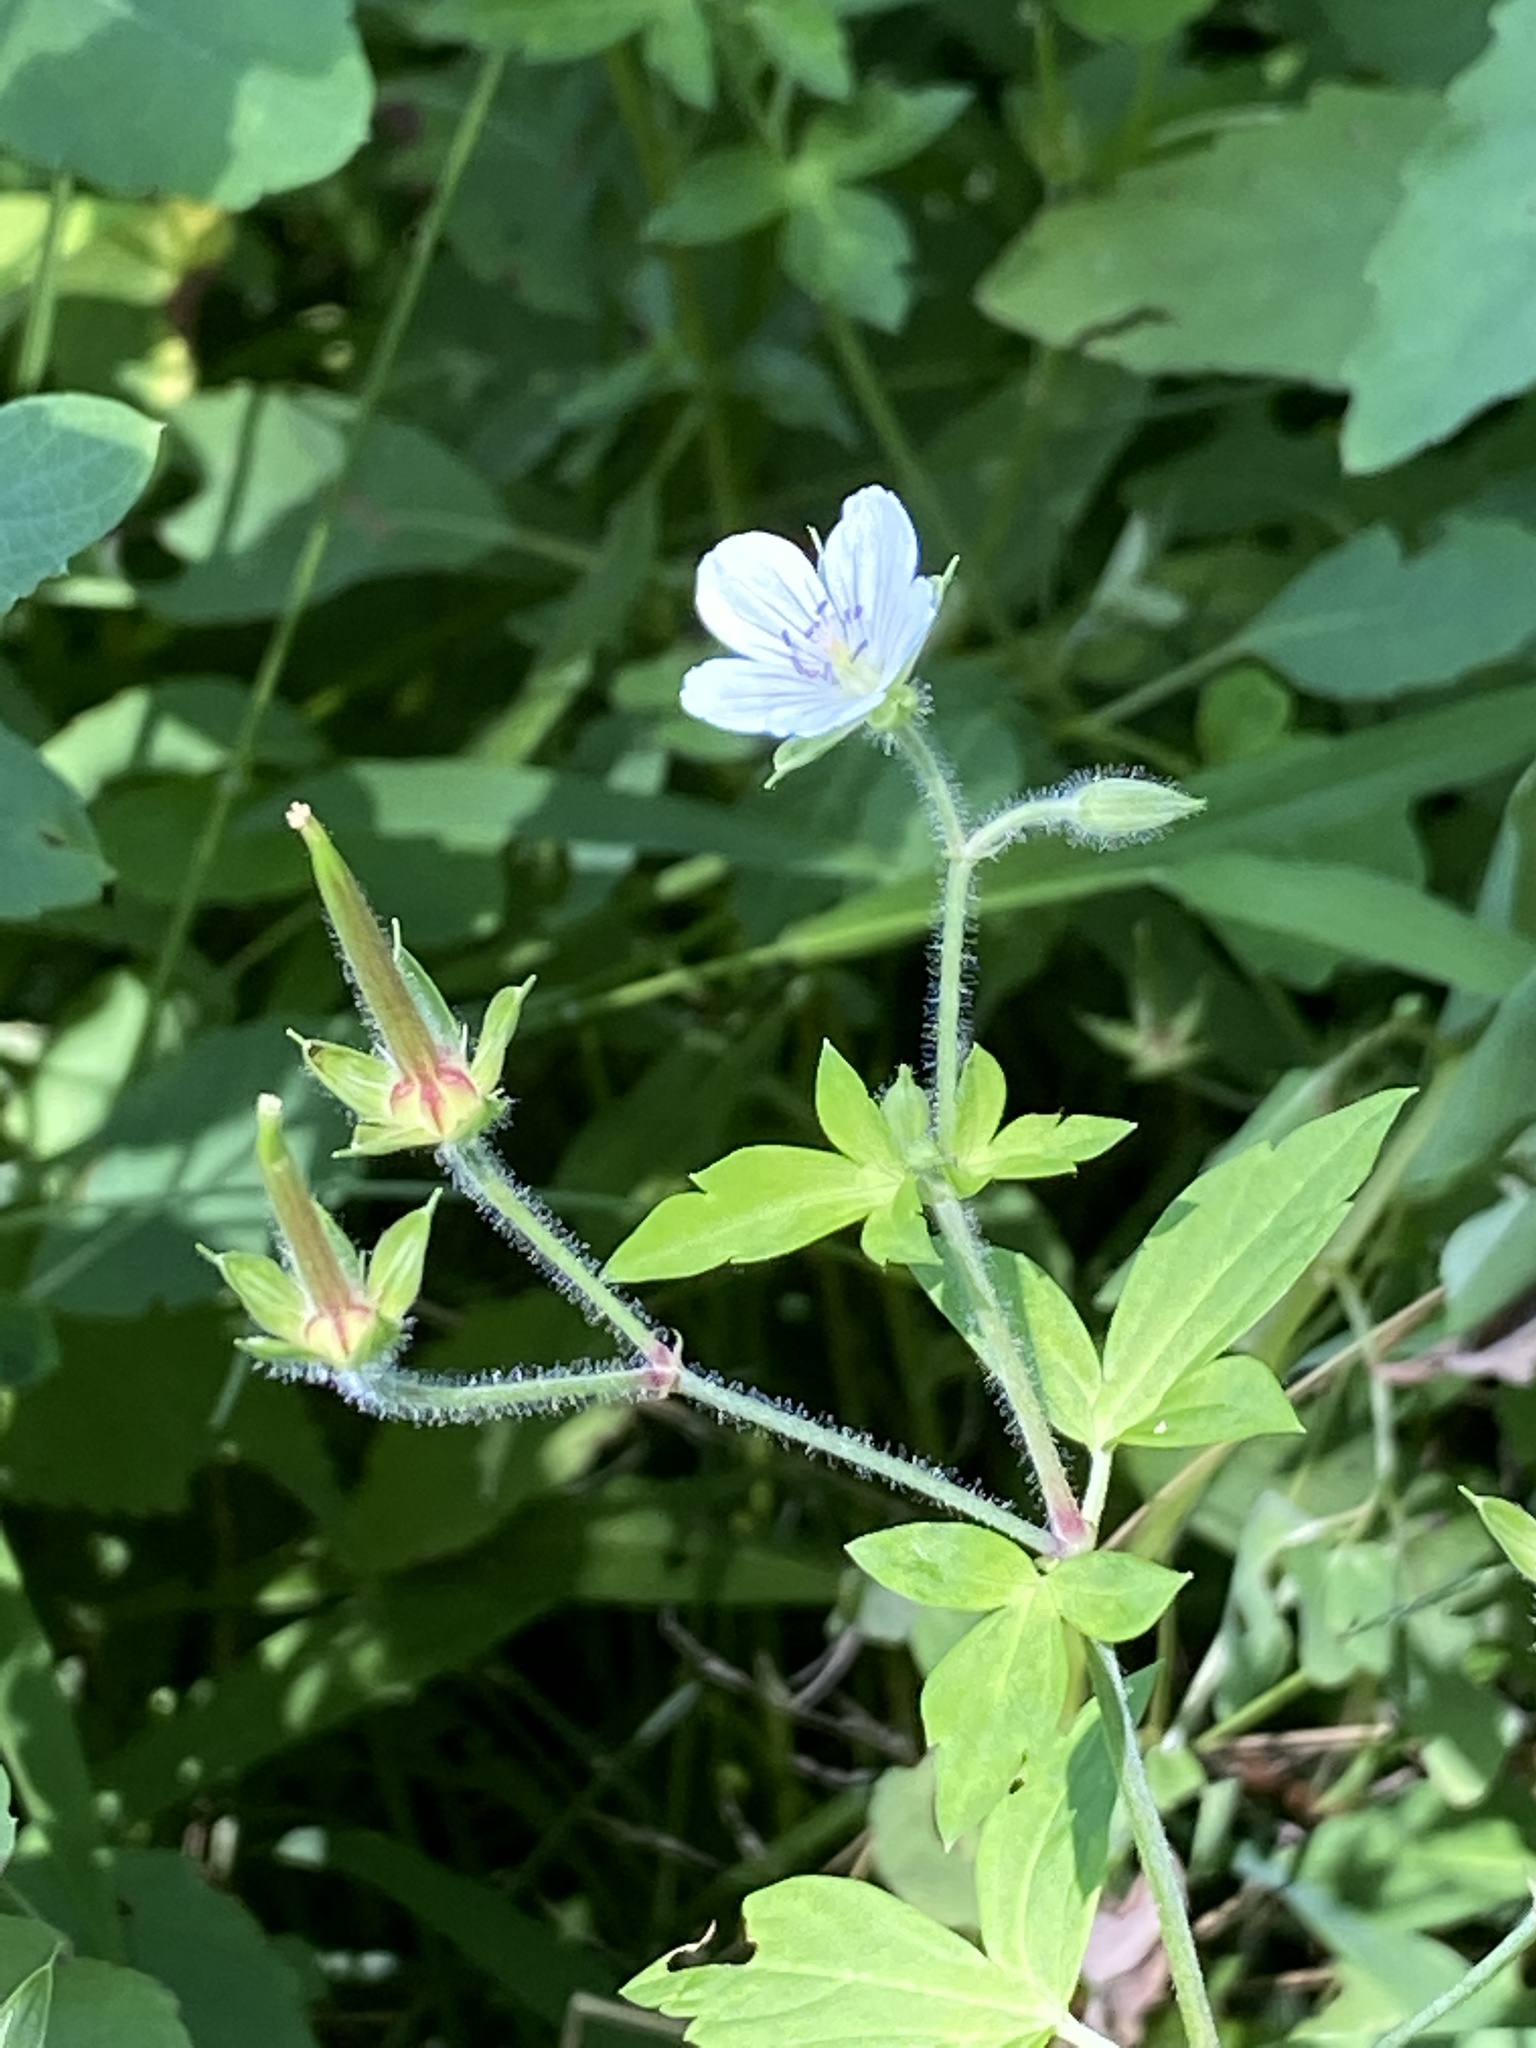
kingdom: Plantae
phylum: Tracheophyta
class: Magnoliopsida
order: Geraniales
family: Geraniaceae
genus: Geranium
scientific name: Geranium thunbergii
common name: Dewdrop crane's-bill
